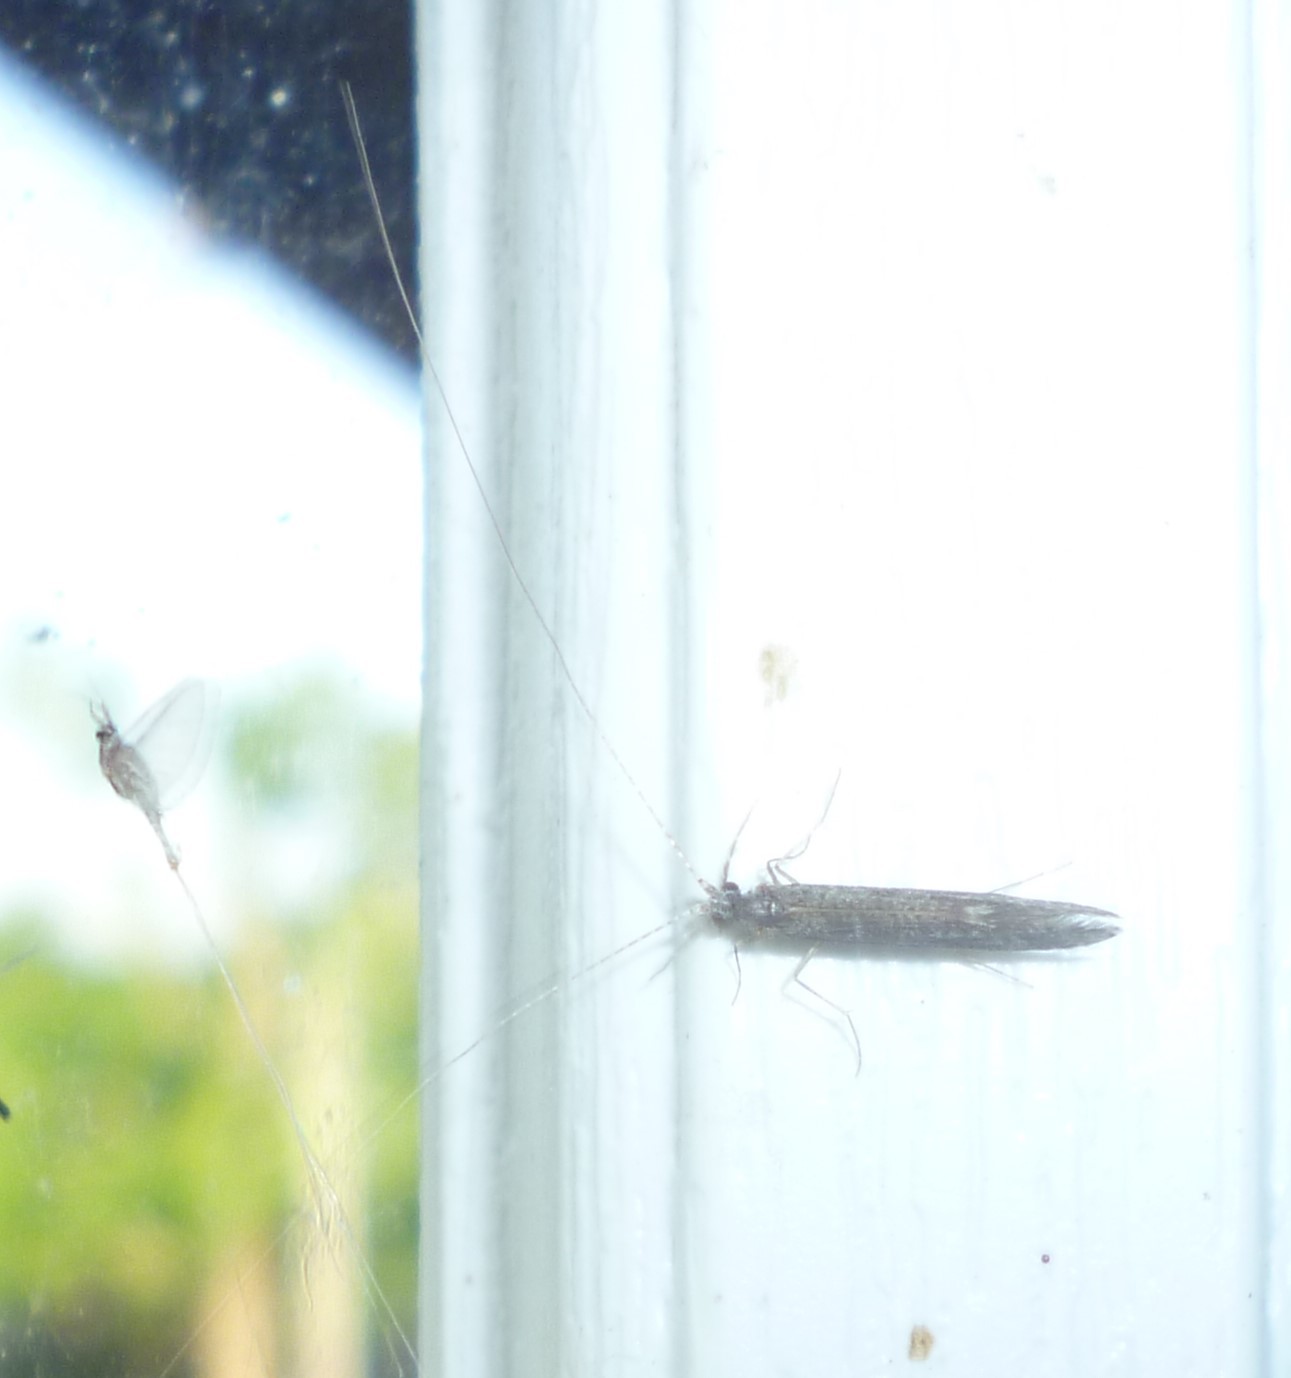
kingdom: Animalia
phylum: Arthropoda
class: Insecta
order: Trichoptera
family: Leptoceridae
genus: Leptocerus
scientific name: Leptocerus americanus
